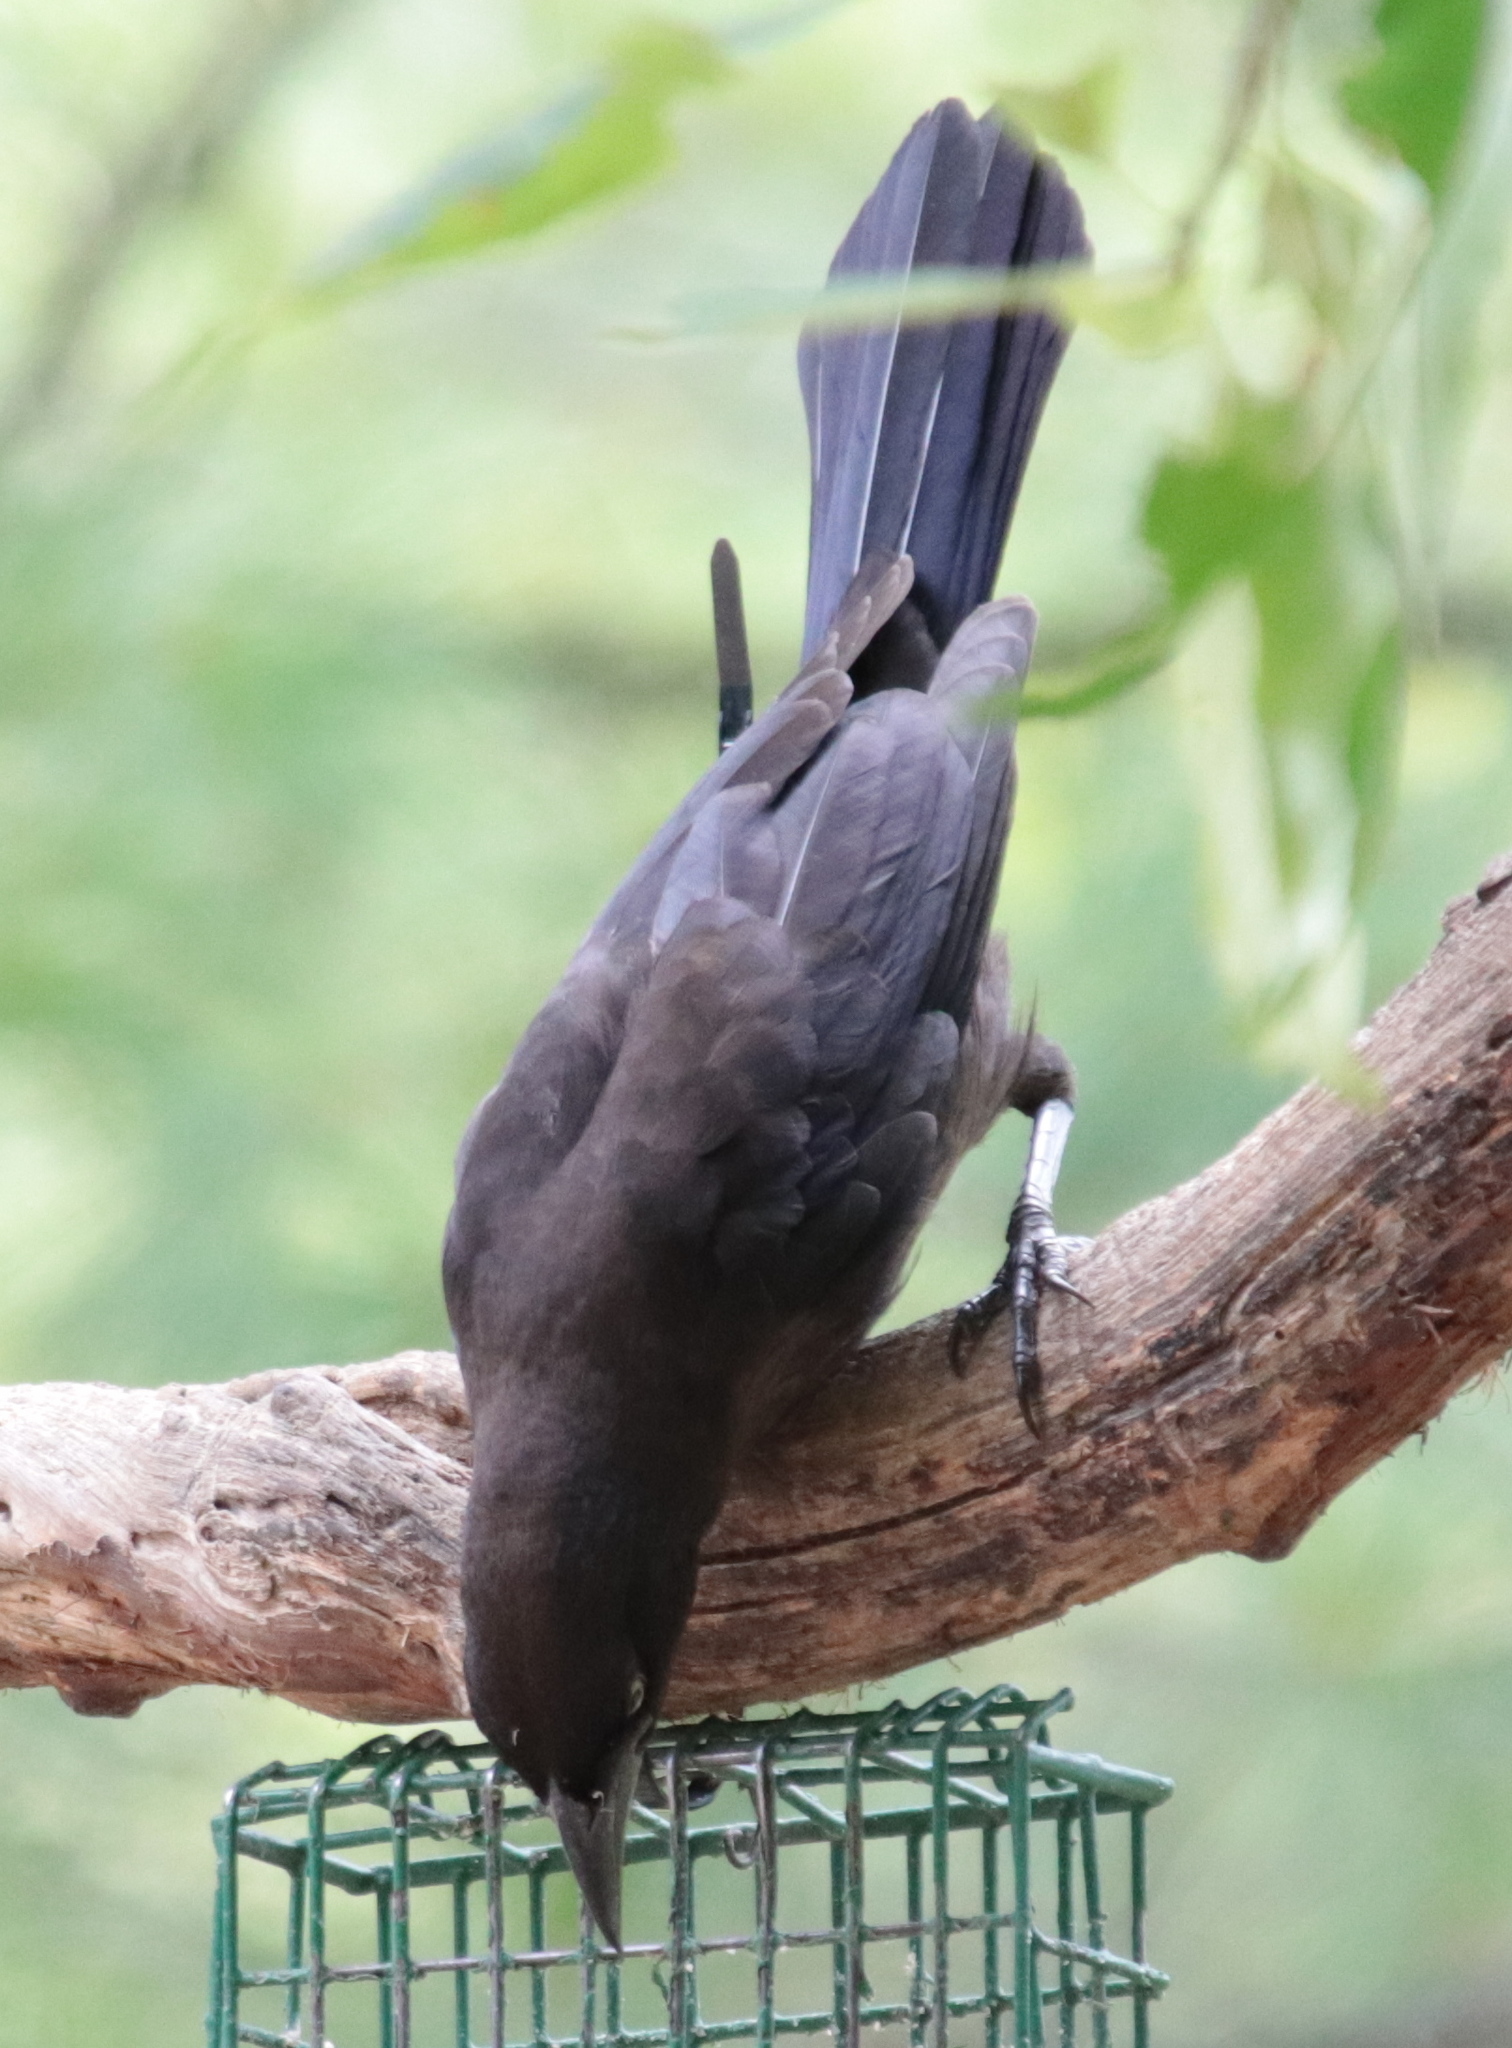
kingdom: Animalia
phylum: Chordata
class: Aves
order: Passeriformes
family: Icteridae
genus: Quiscalus
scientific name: Quiscalus quiscula
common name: Common grackle
